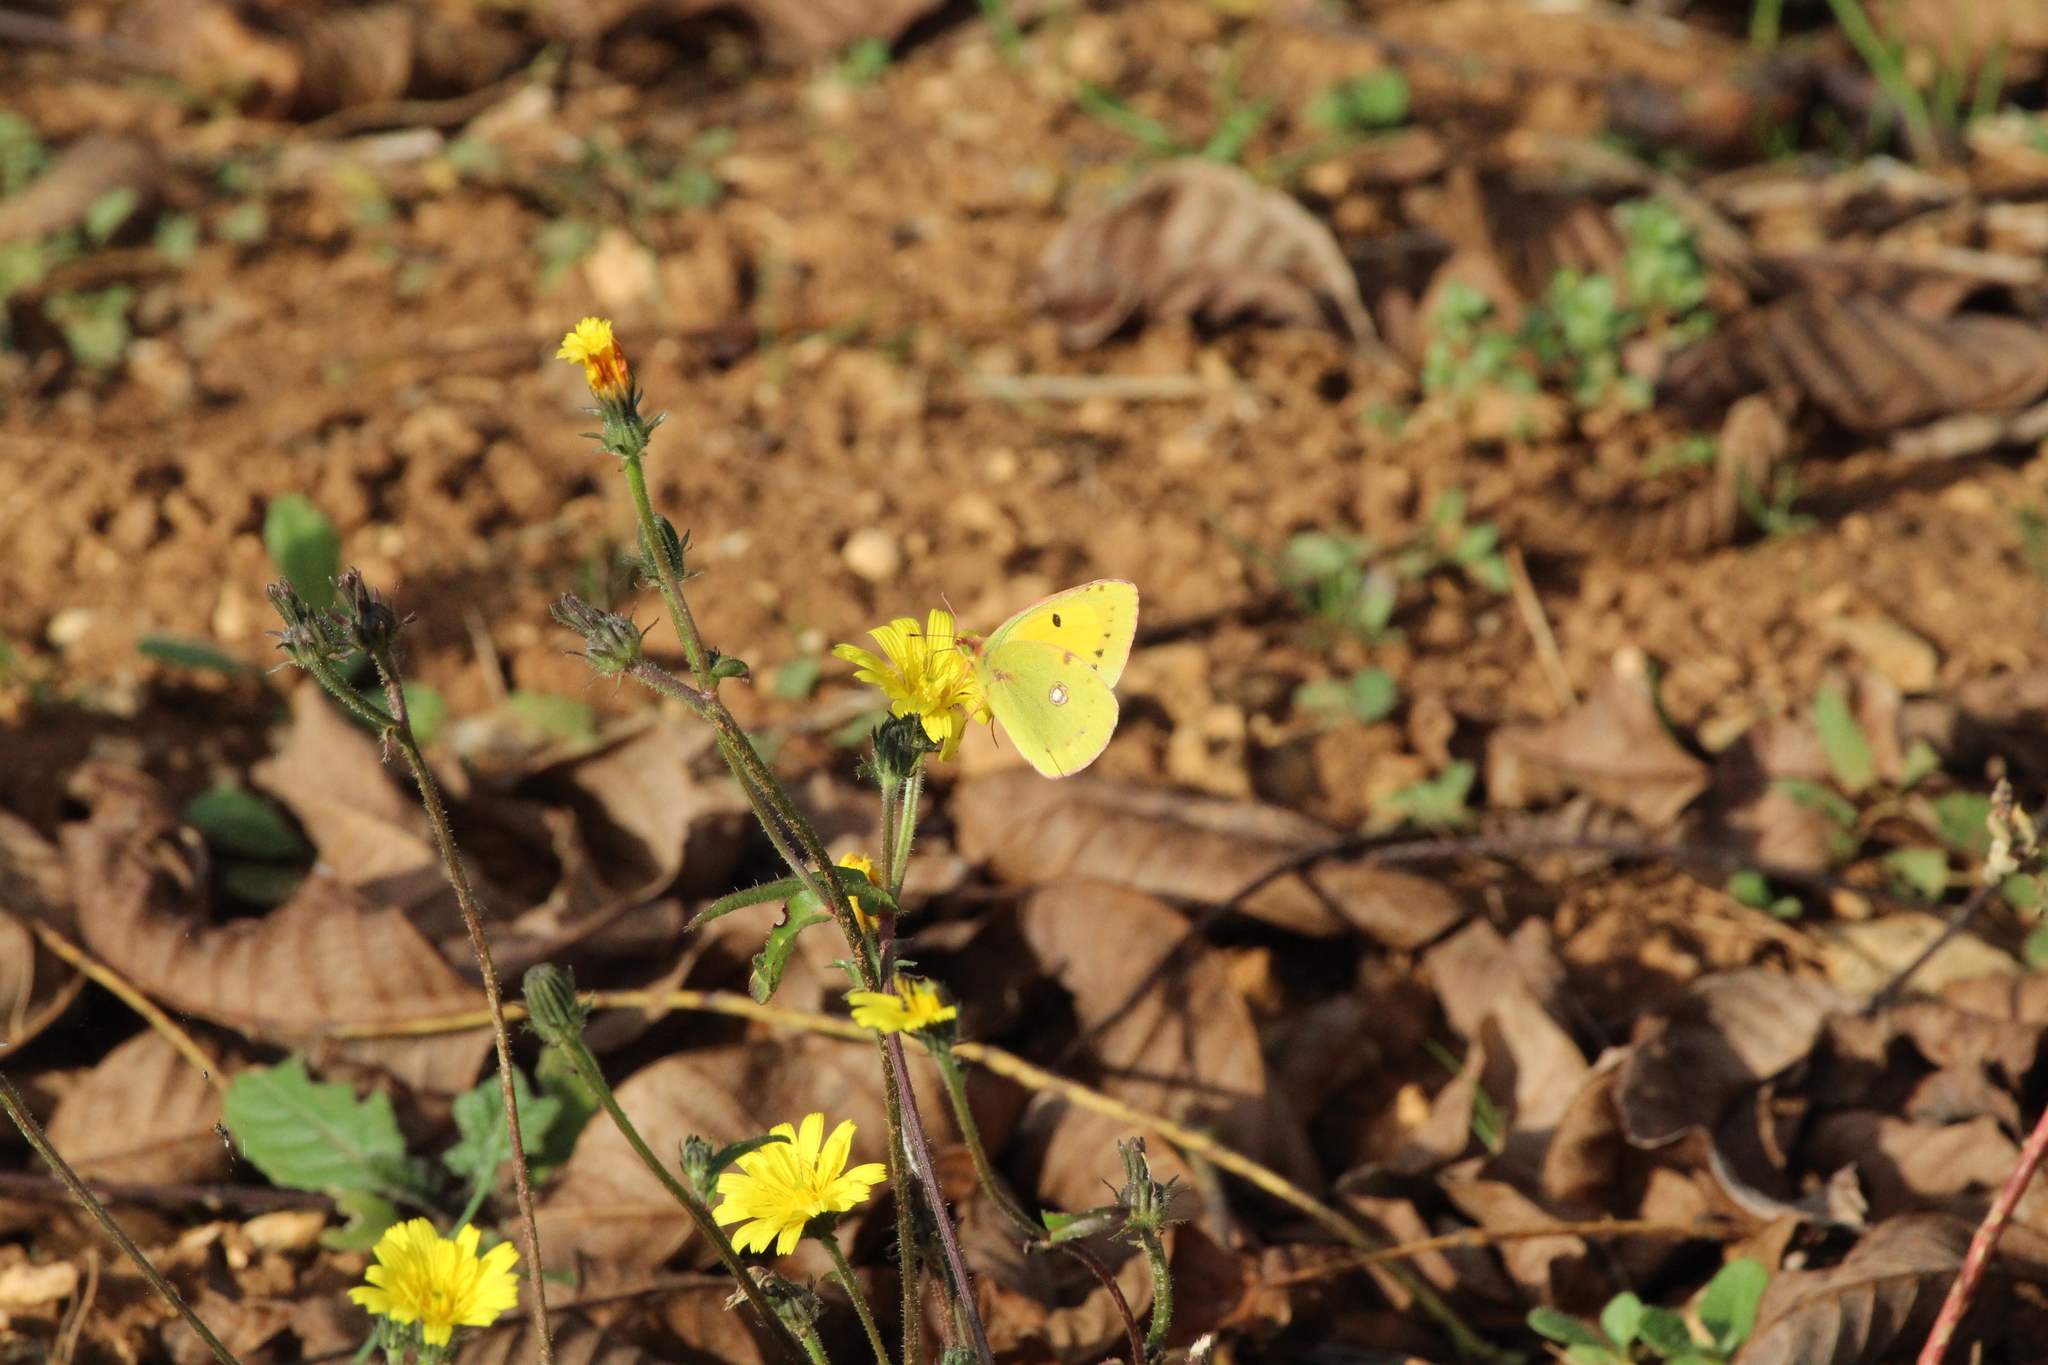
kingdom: Animalia
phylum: Arthropoda
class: Insecta
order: Lepidoptera
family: Pieridae
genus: Colias
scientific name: Colias croceus
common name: Clouded yellow
